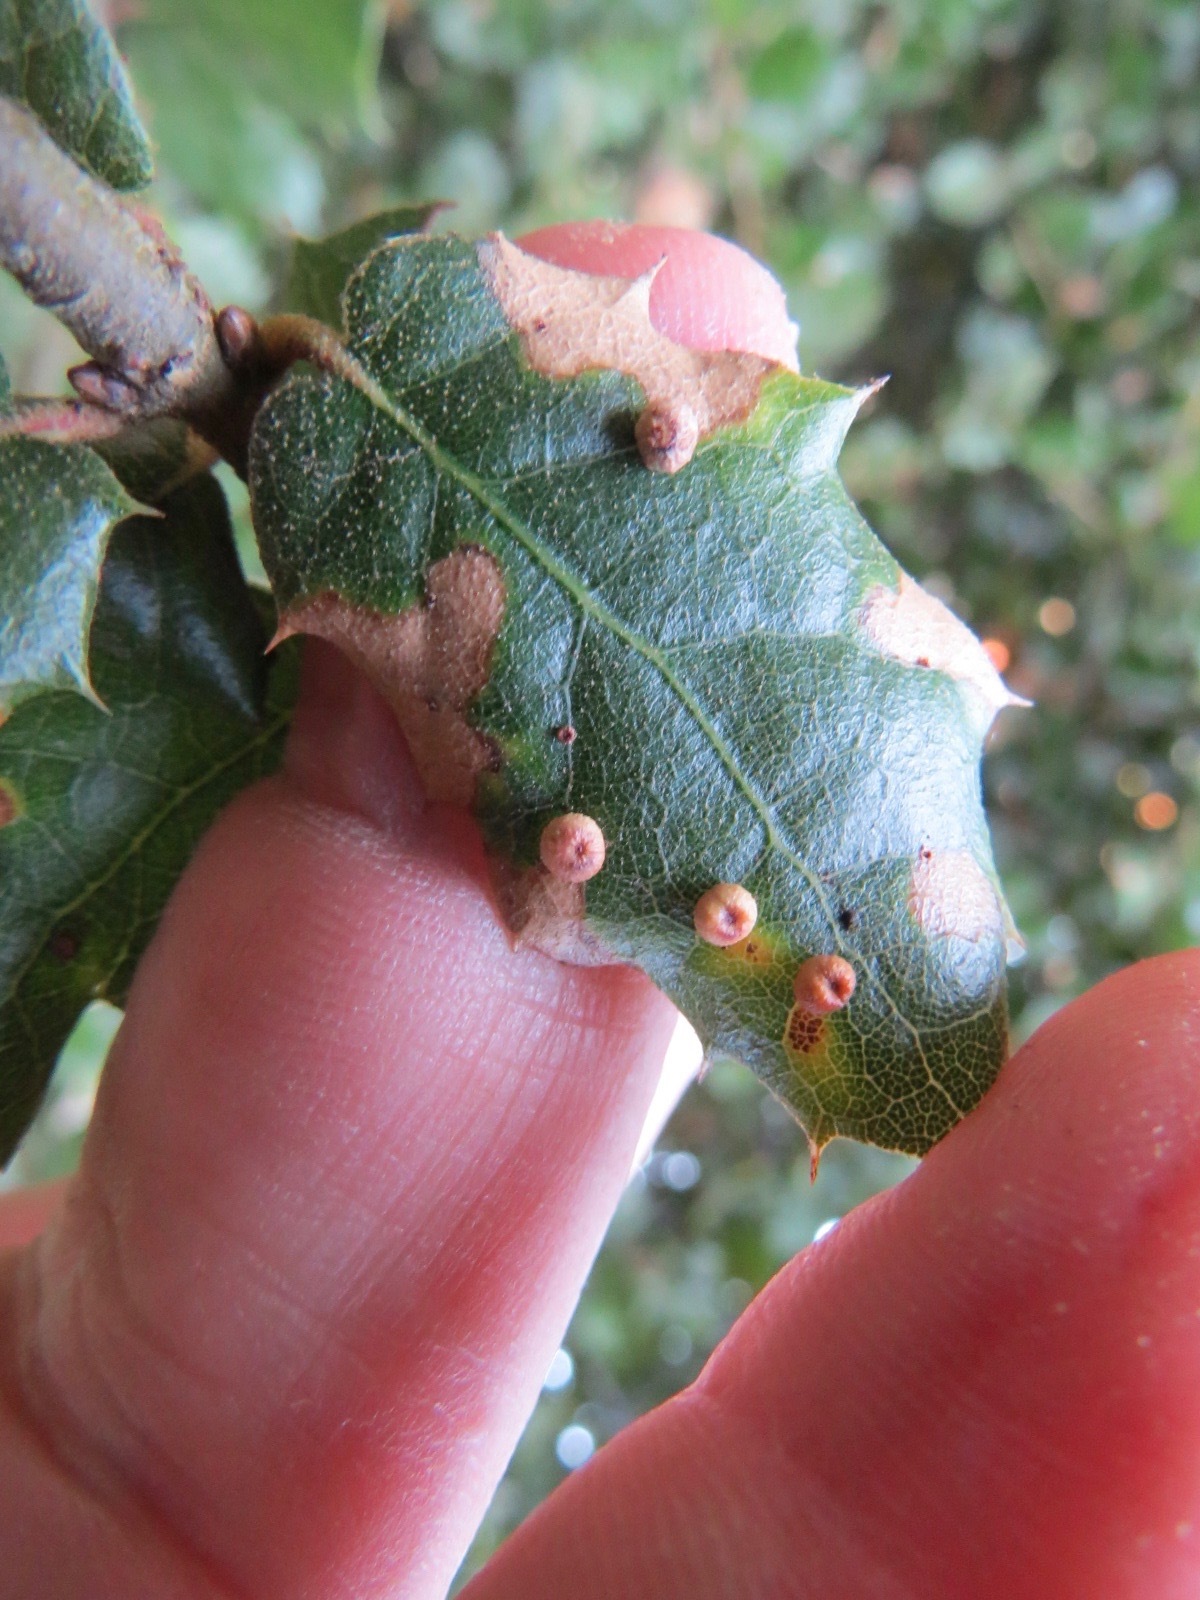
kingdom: Animalia
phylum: Arthropoda
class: Insecta
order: Hymenoptera
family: Cynipidae
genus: Dryocosmus
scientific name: Dryocosmus
